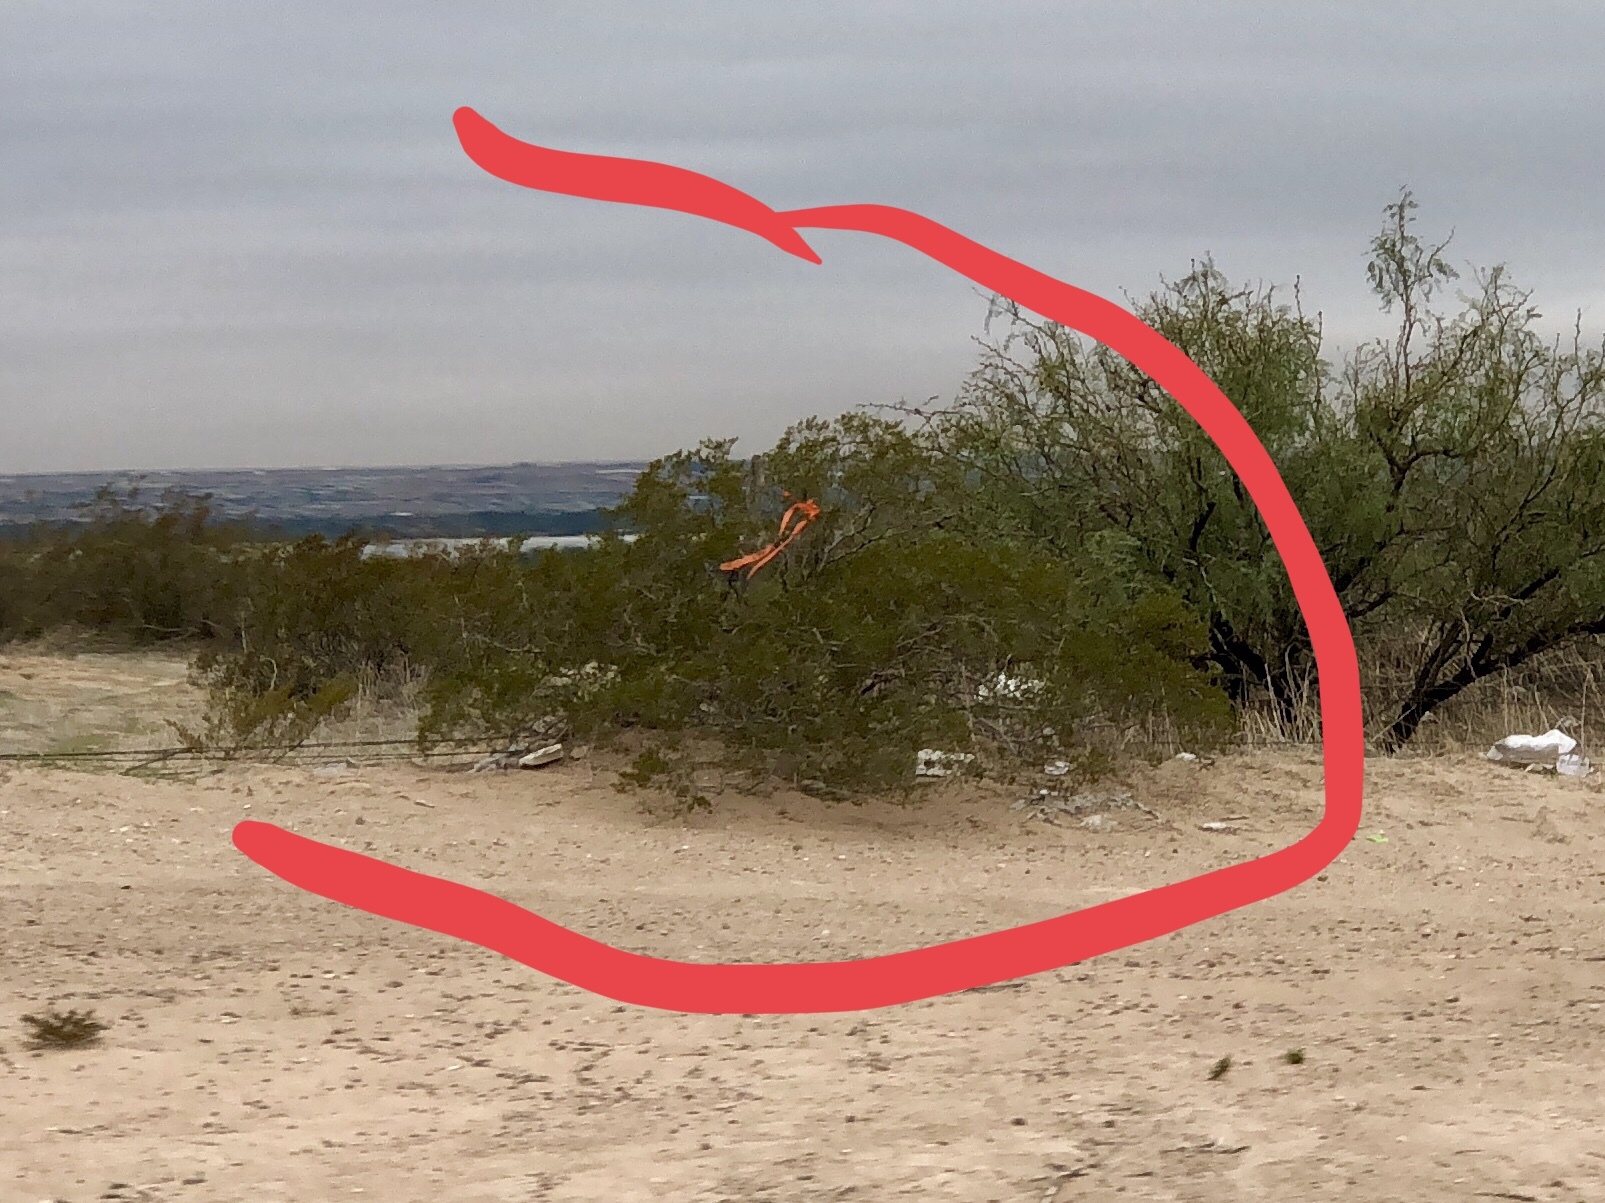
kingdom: Plantae
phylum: Tracheophyta
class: Magnoliopsida
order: Zygophyllales
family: Zygophyllaceae
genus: Larrea
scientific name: Larrea tridentata
